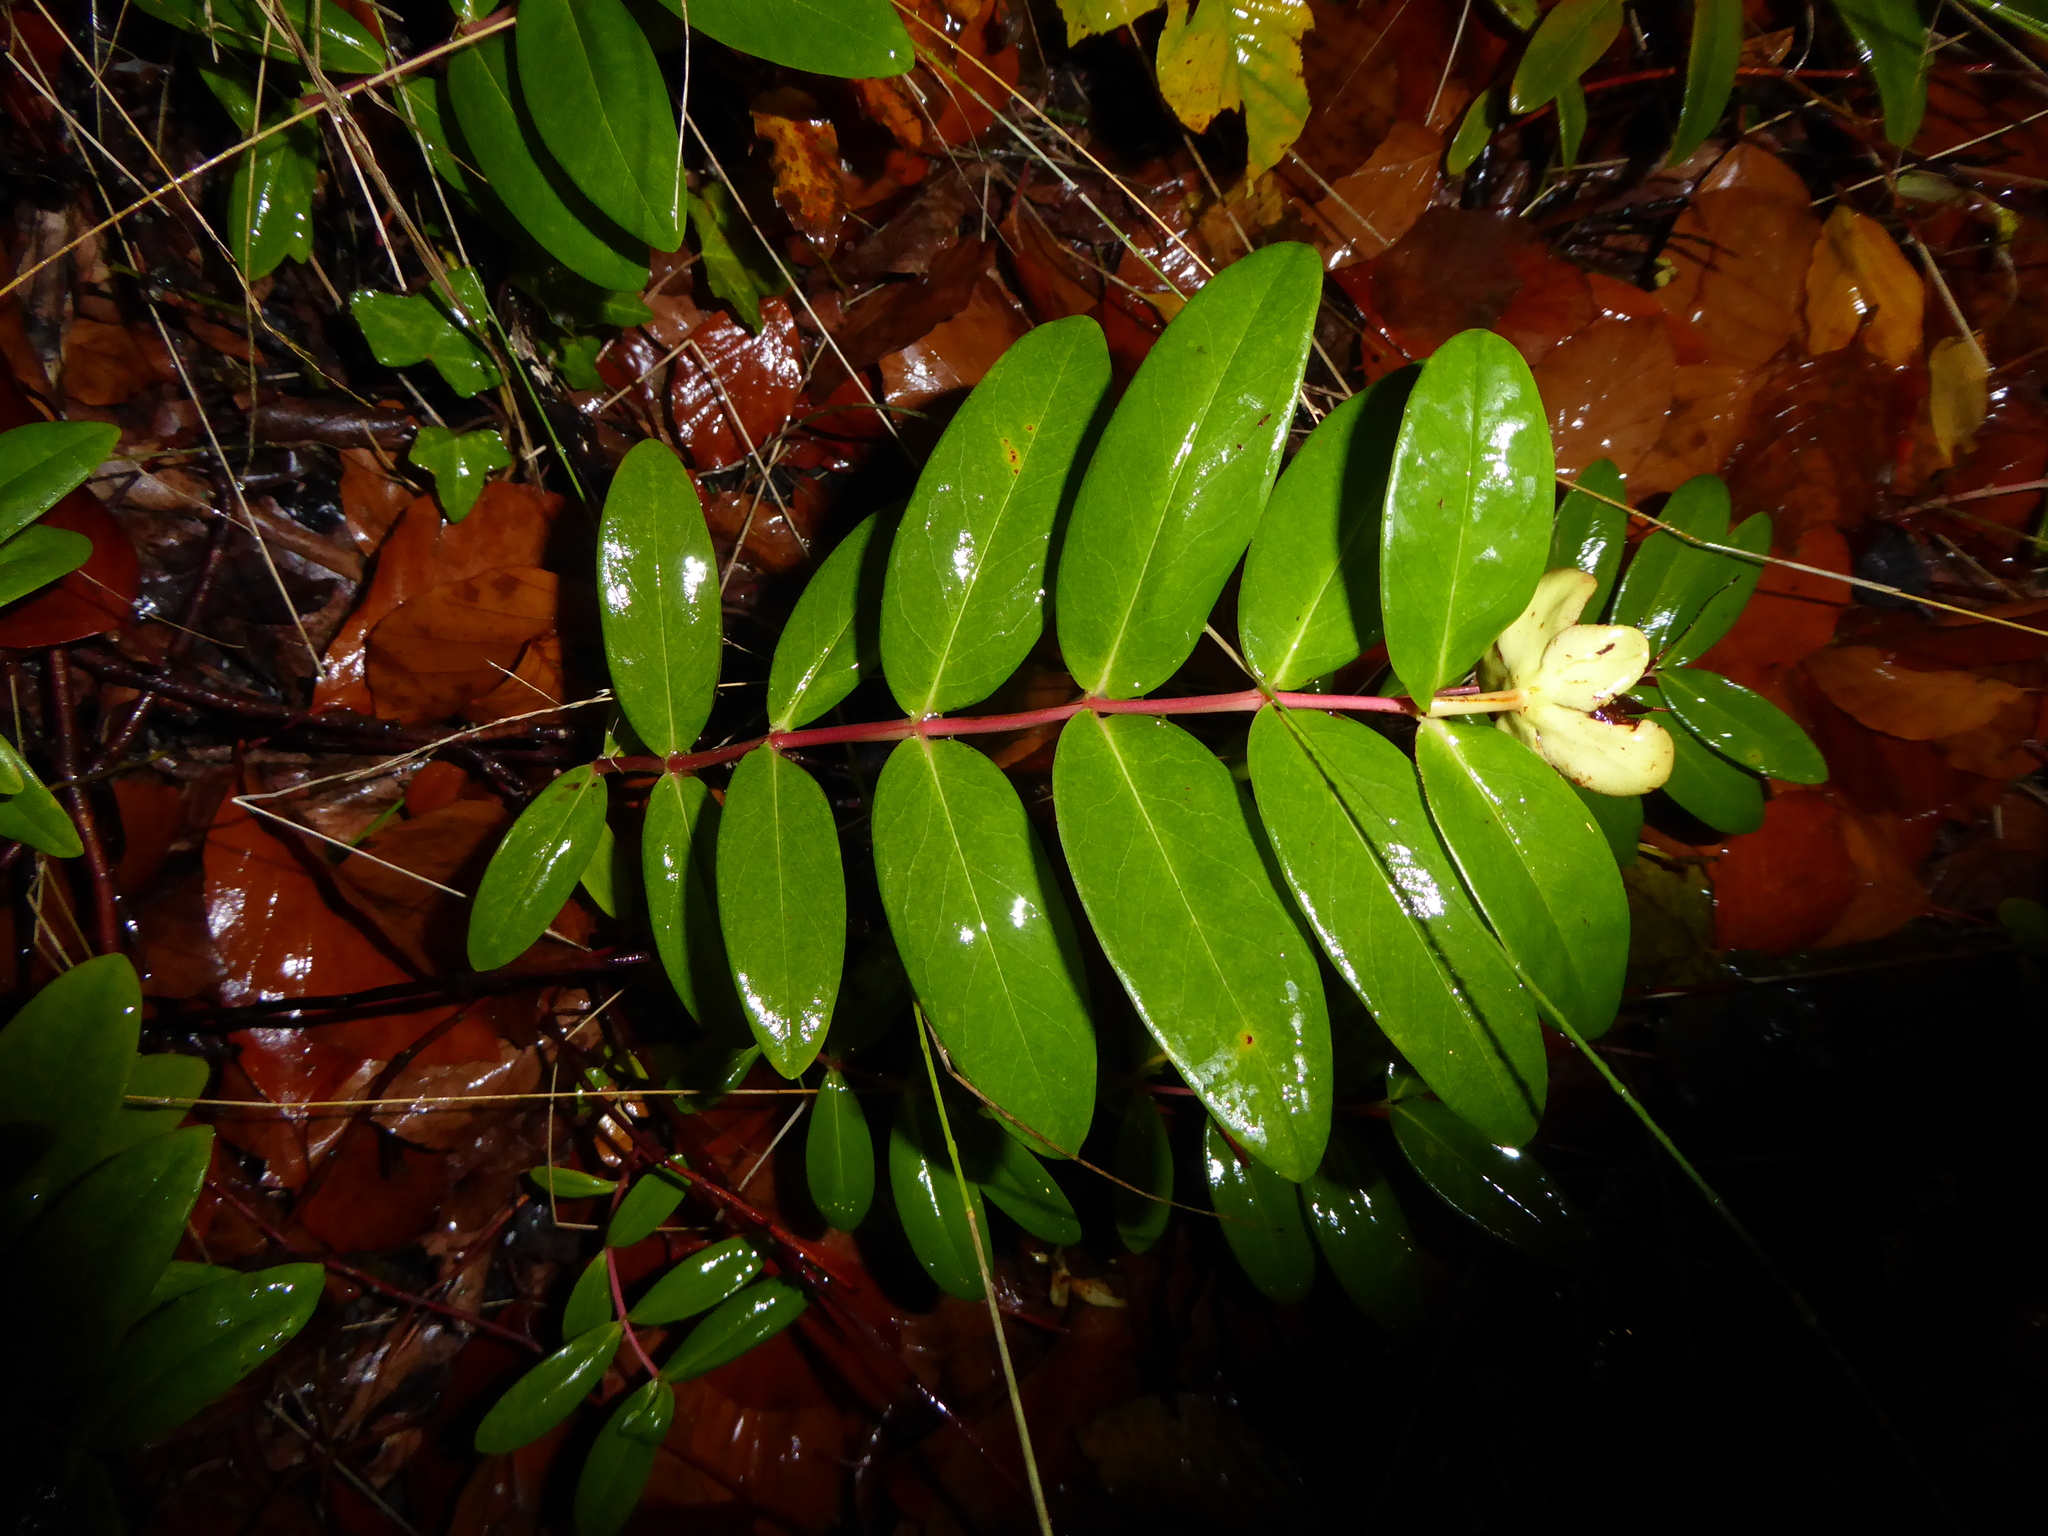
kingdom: Plantae
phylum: Tracheophyta
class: Magnoliopsida
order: Malpighiales
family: Hypericaceae
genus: Hypericum
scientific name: Hypericum calycinum
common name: Rose-of-sharon
